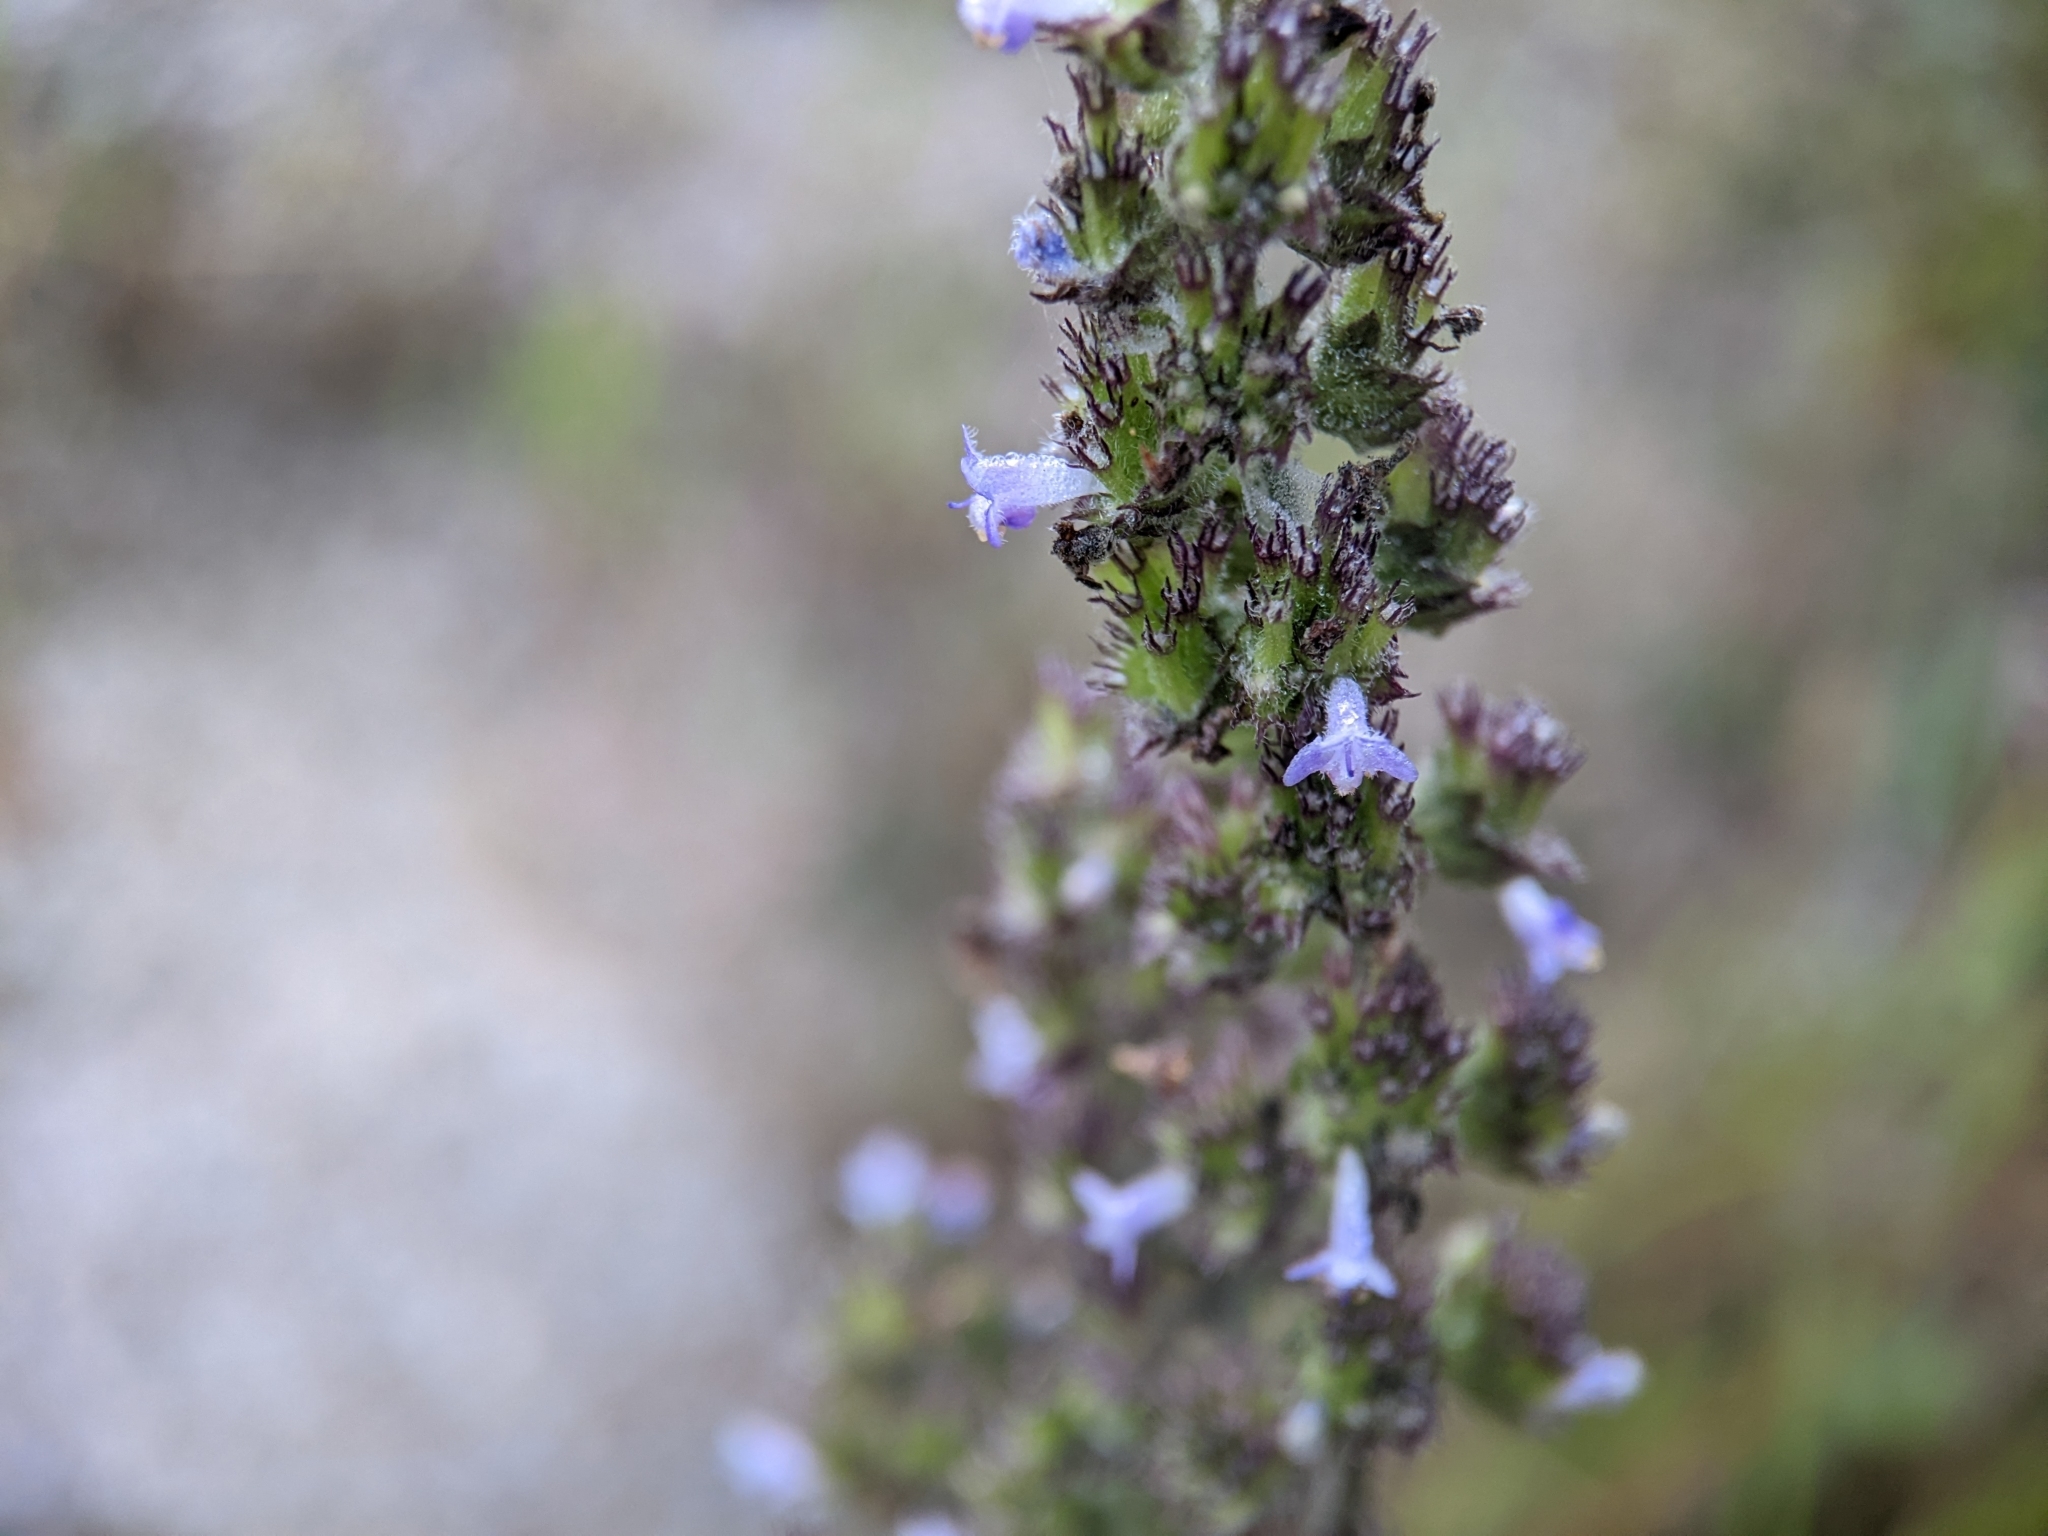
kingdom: Plantae
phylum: Tracheophyta
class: Magnoliopsida
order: Lamiales
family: Lamiaceae
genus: Cantinoa
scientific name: Cantinoa mutabilis
